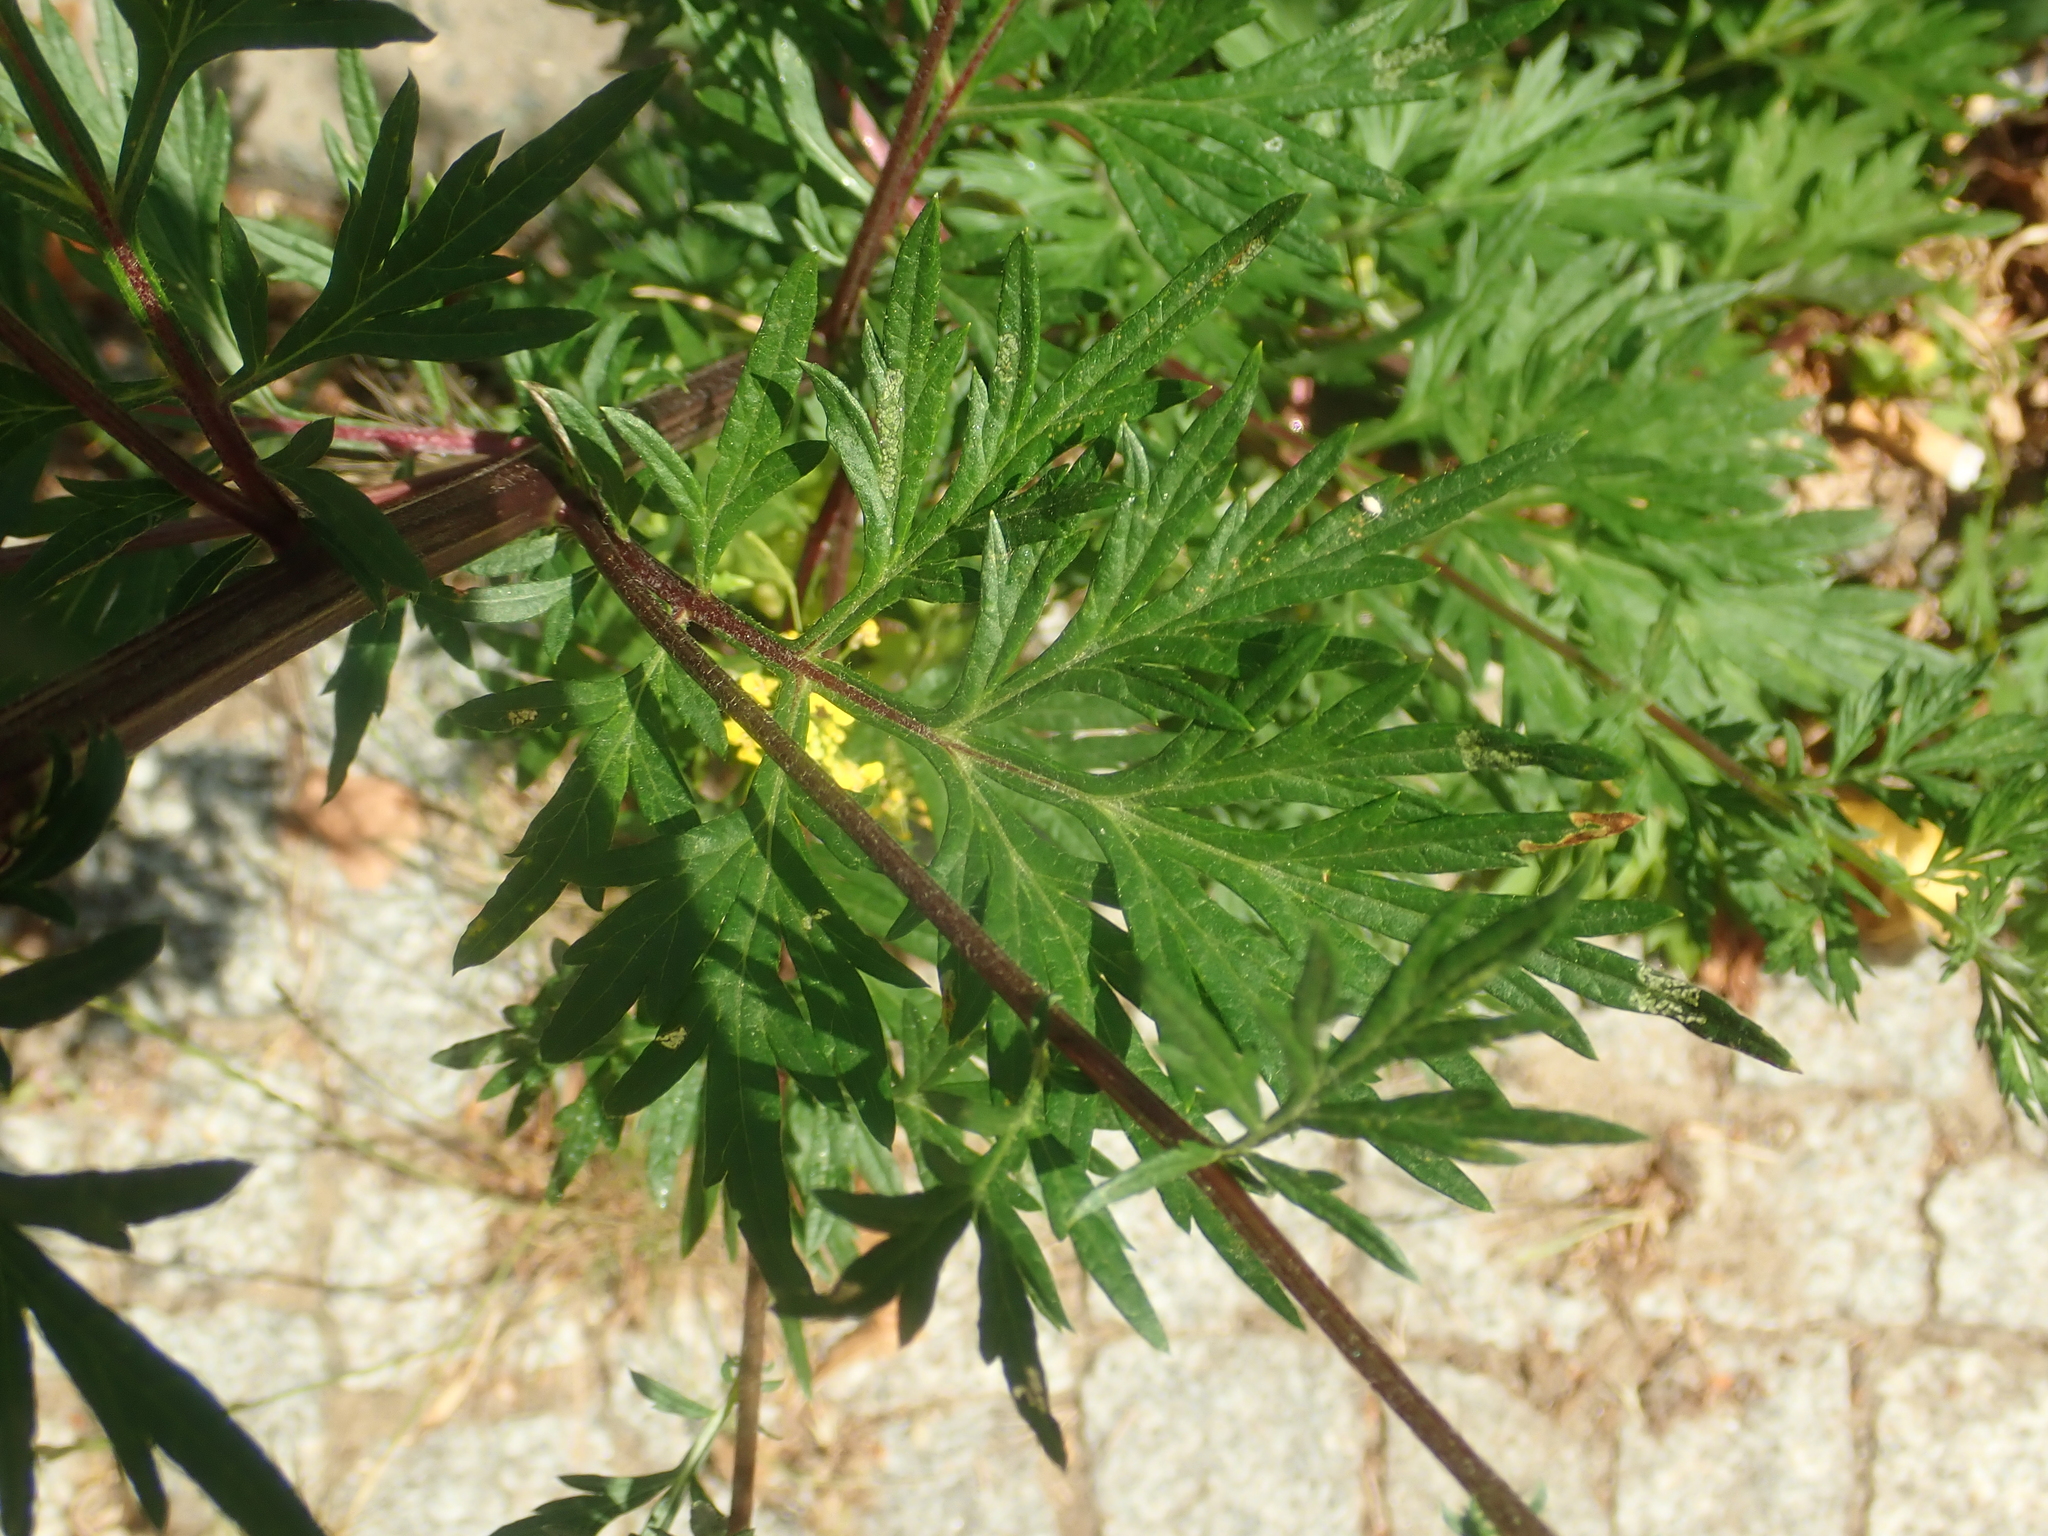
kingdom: Plantae
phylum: Tracheophyta
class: Magnoliopsida
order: Asterales
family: Asteraceae
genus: Artemisia
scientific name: Artemisia vulgaris
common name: Mugwort
